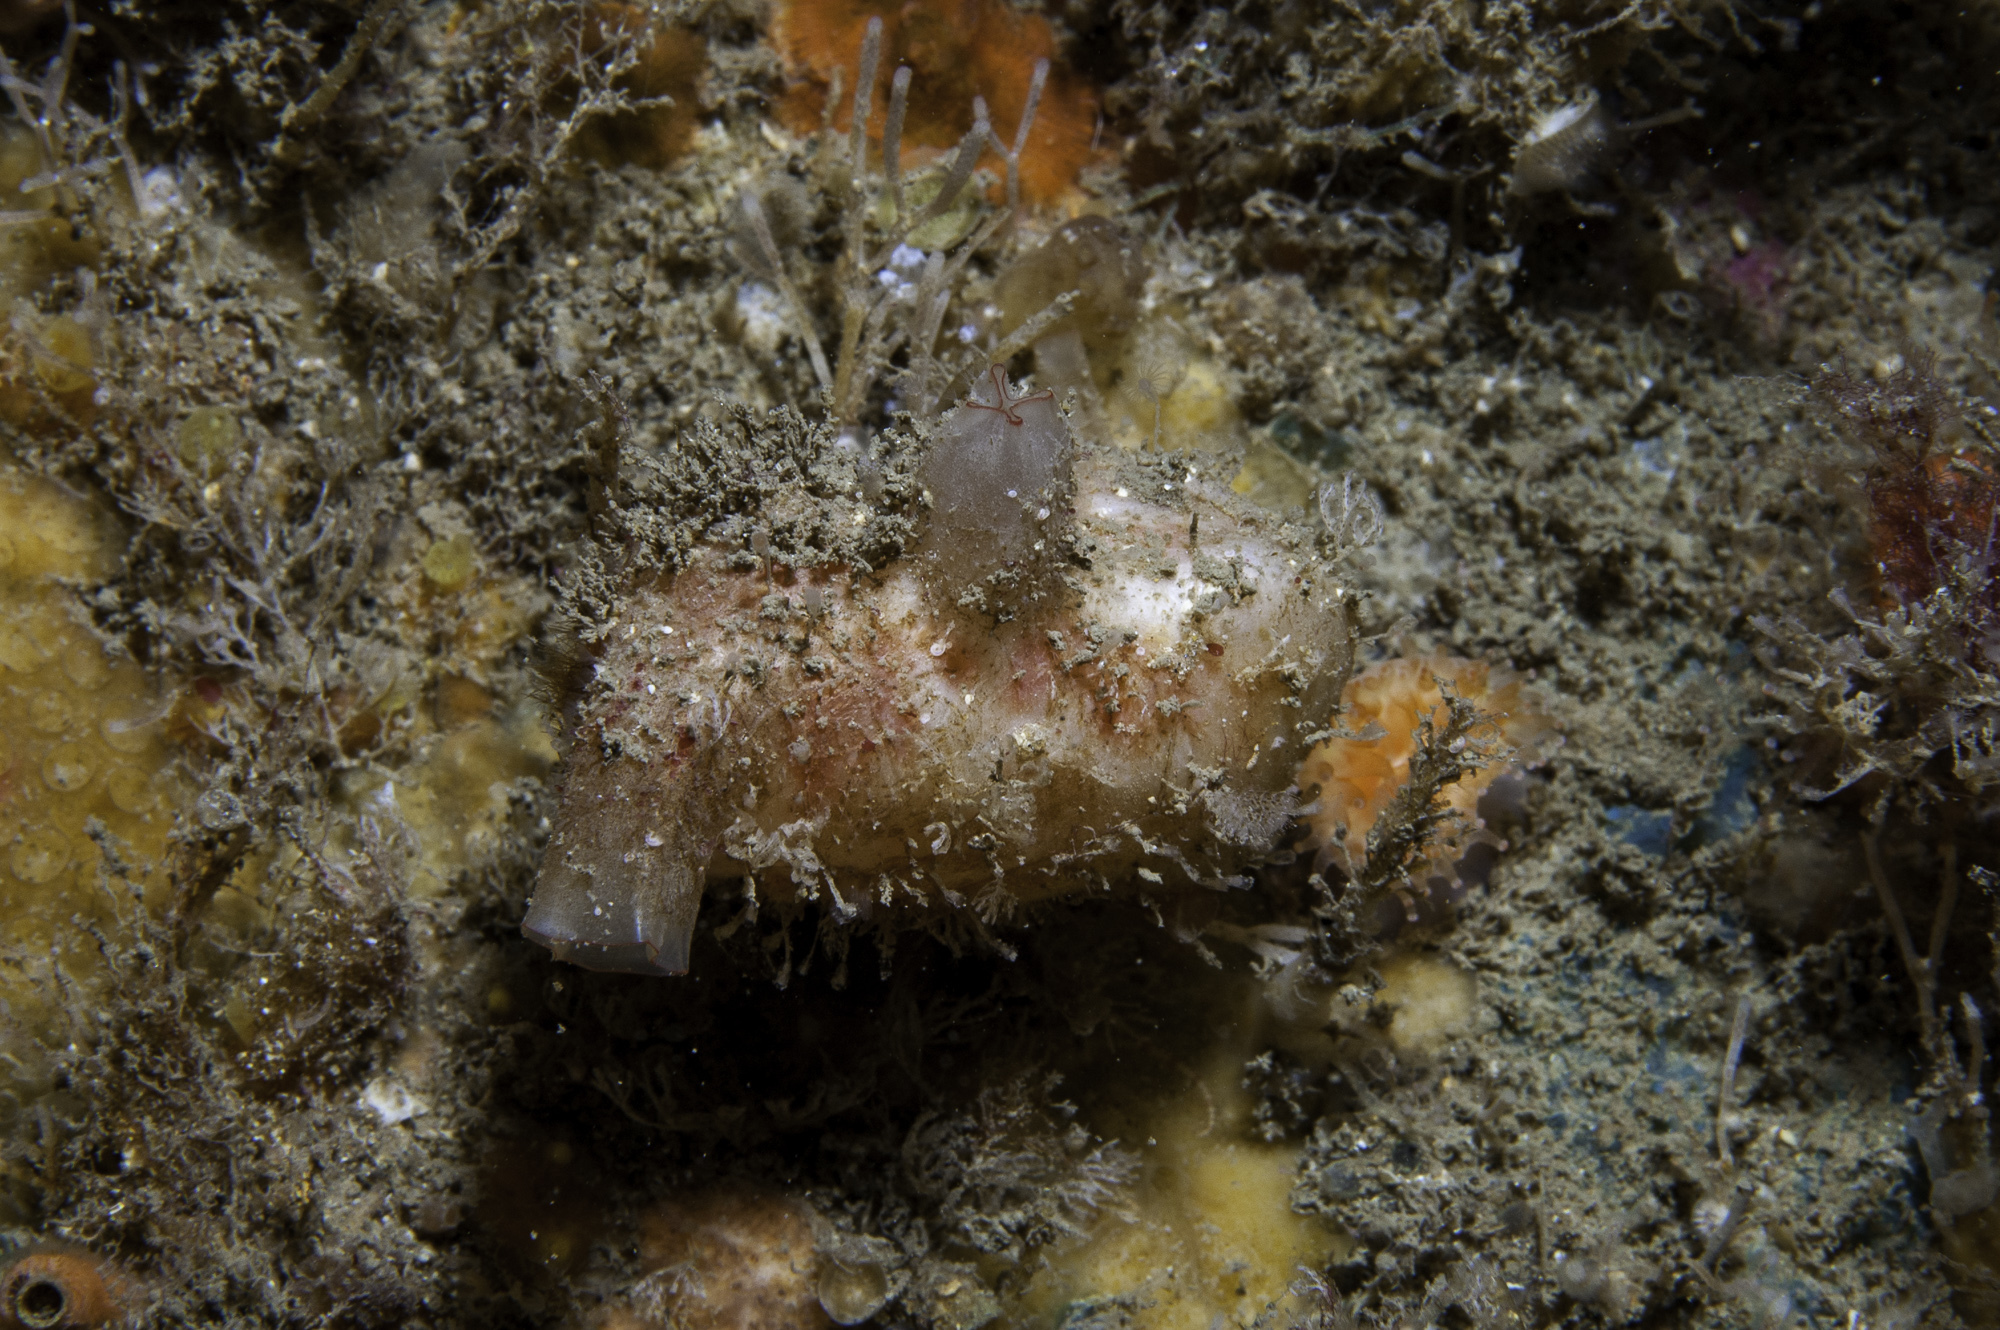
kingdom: Animalia
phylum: Chordata
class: Ascidiacea
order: Stolidobranchia
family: Styelidae
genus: Polycarpa
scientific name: Polycarpa pomaria
